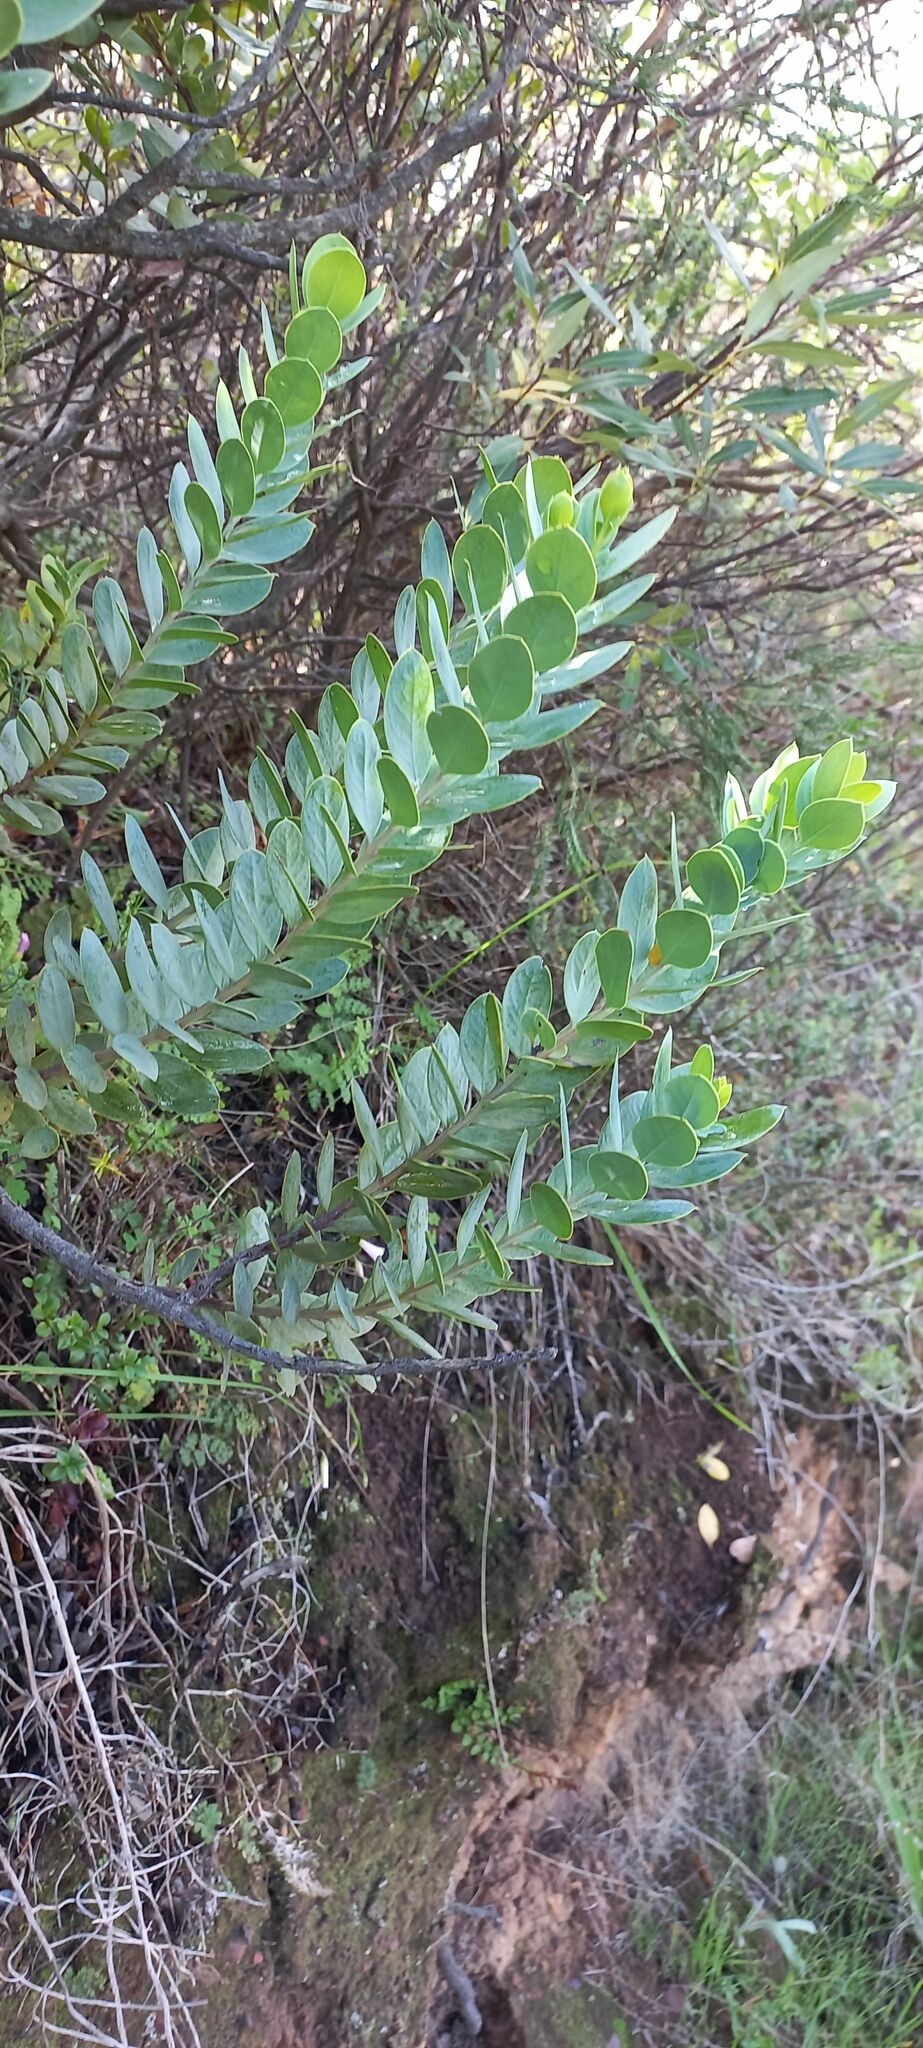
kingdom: Plantae
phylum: Tracheophyta
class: Magnoliopsida
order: Santalales
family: Santalaceae
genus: Osyris
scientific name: Osyris compressa
